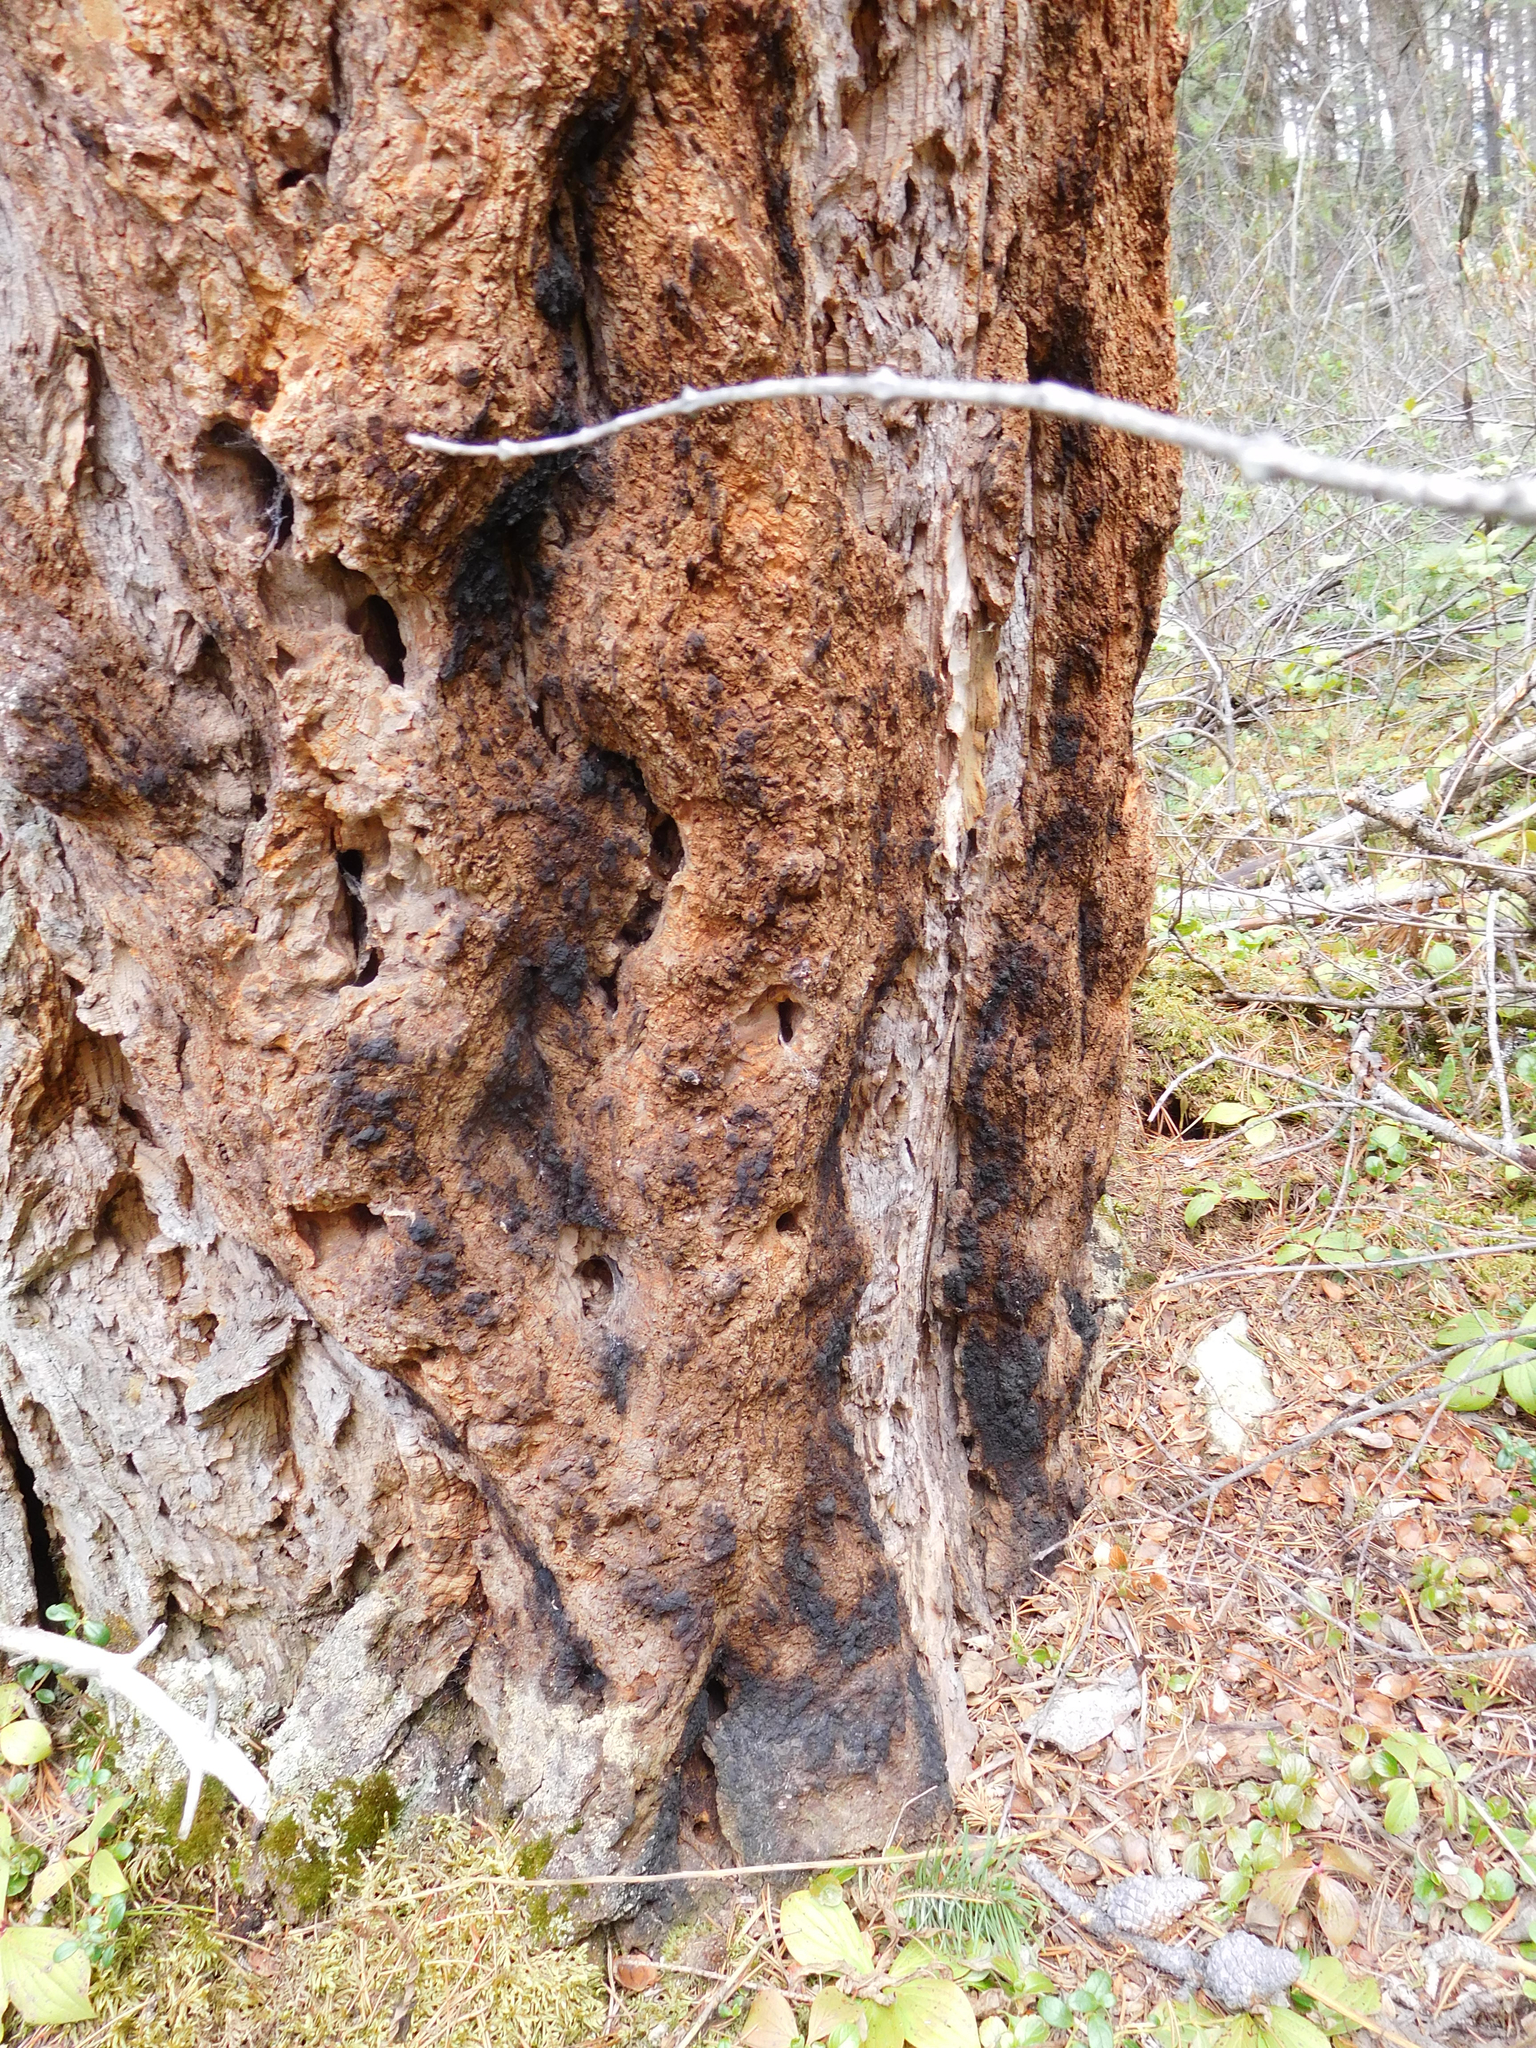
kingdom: Plantae
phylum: Tracheophyta
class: Pinopsida
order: Pinales
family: Pinaceae
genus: Pseudotsuga
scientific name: Pseudotsuga menziesii
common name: Douglas fir
